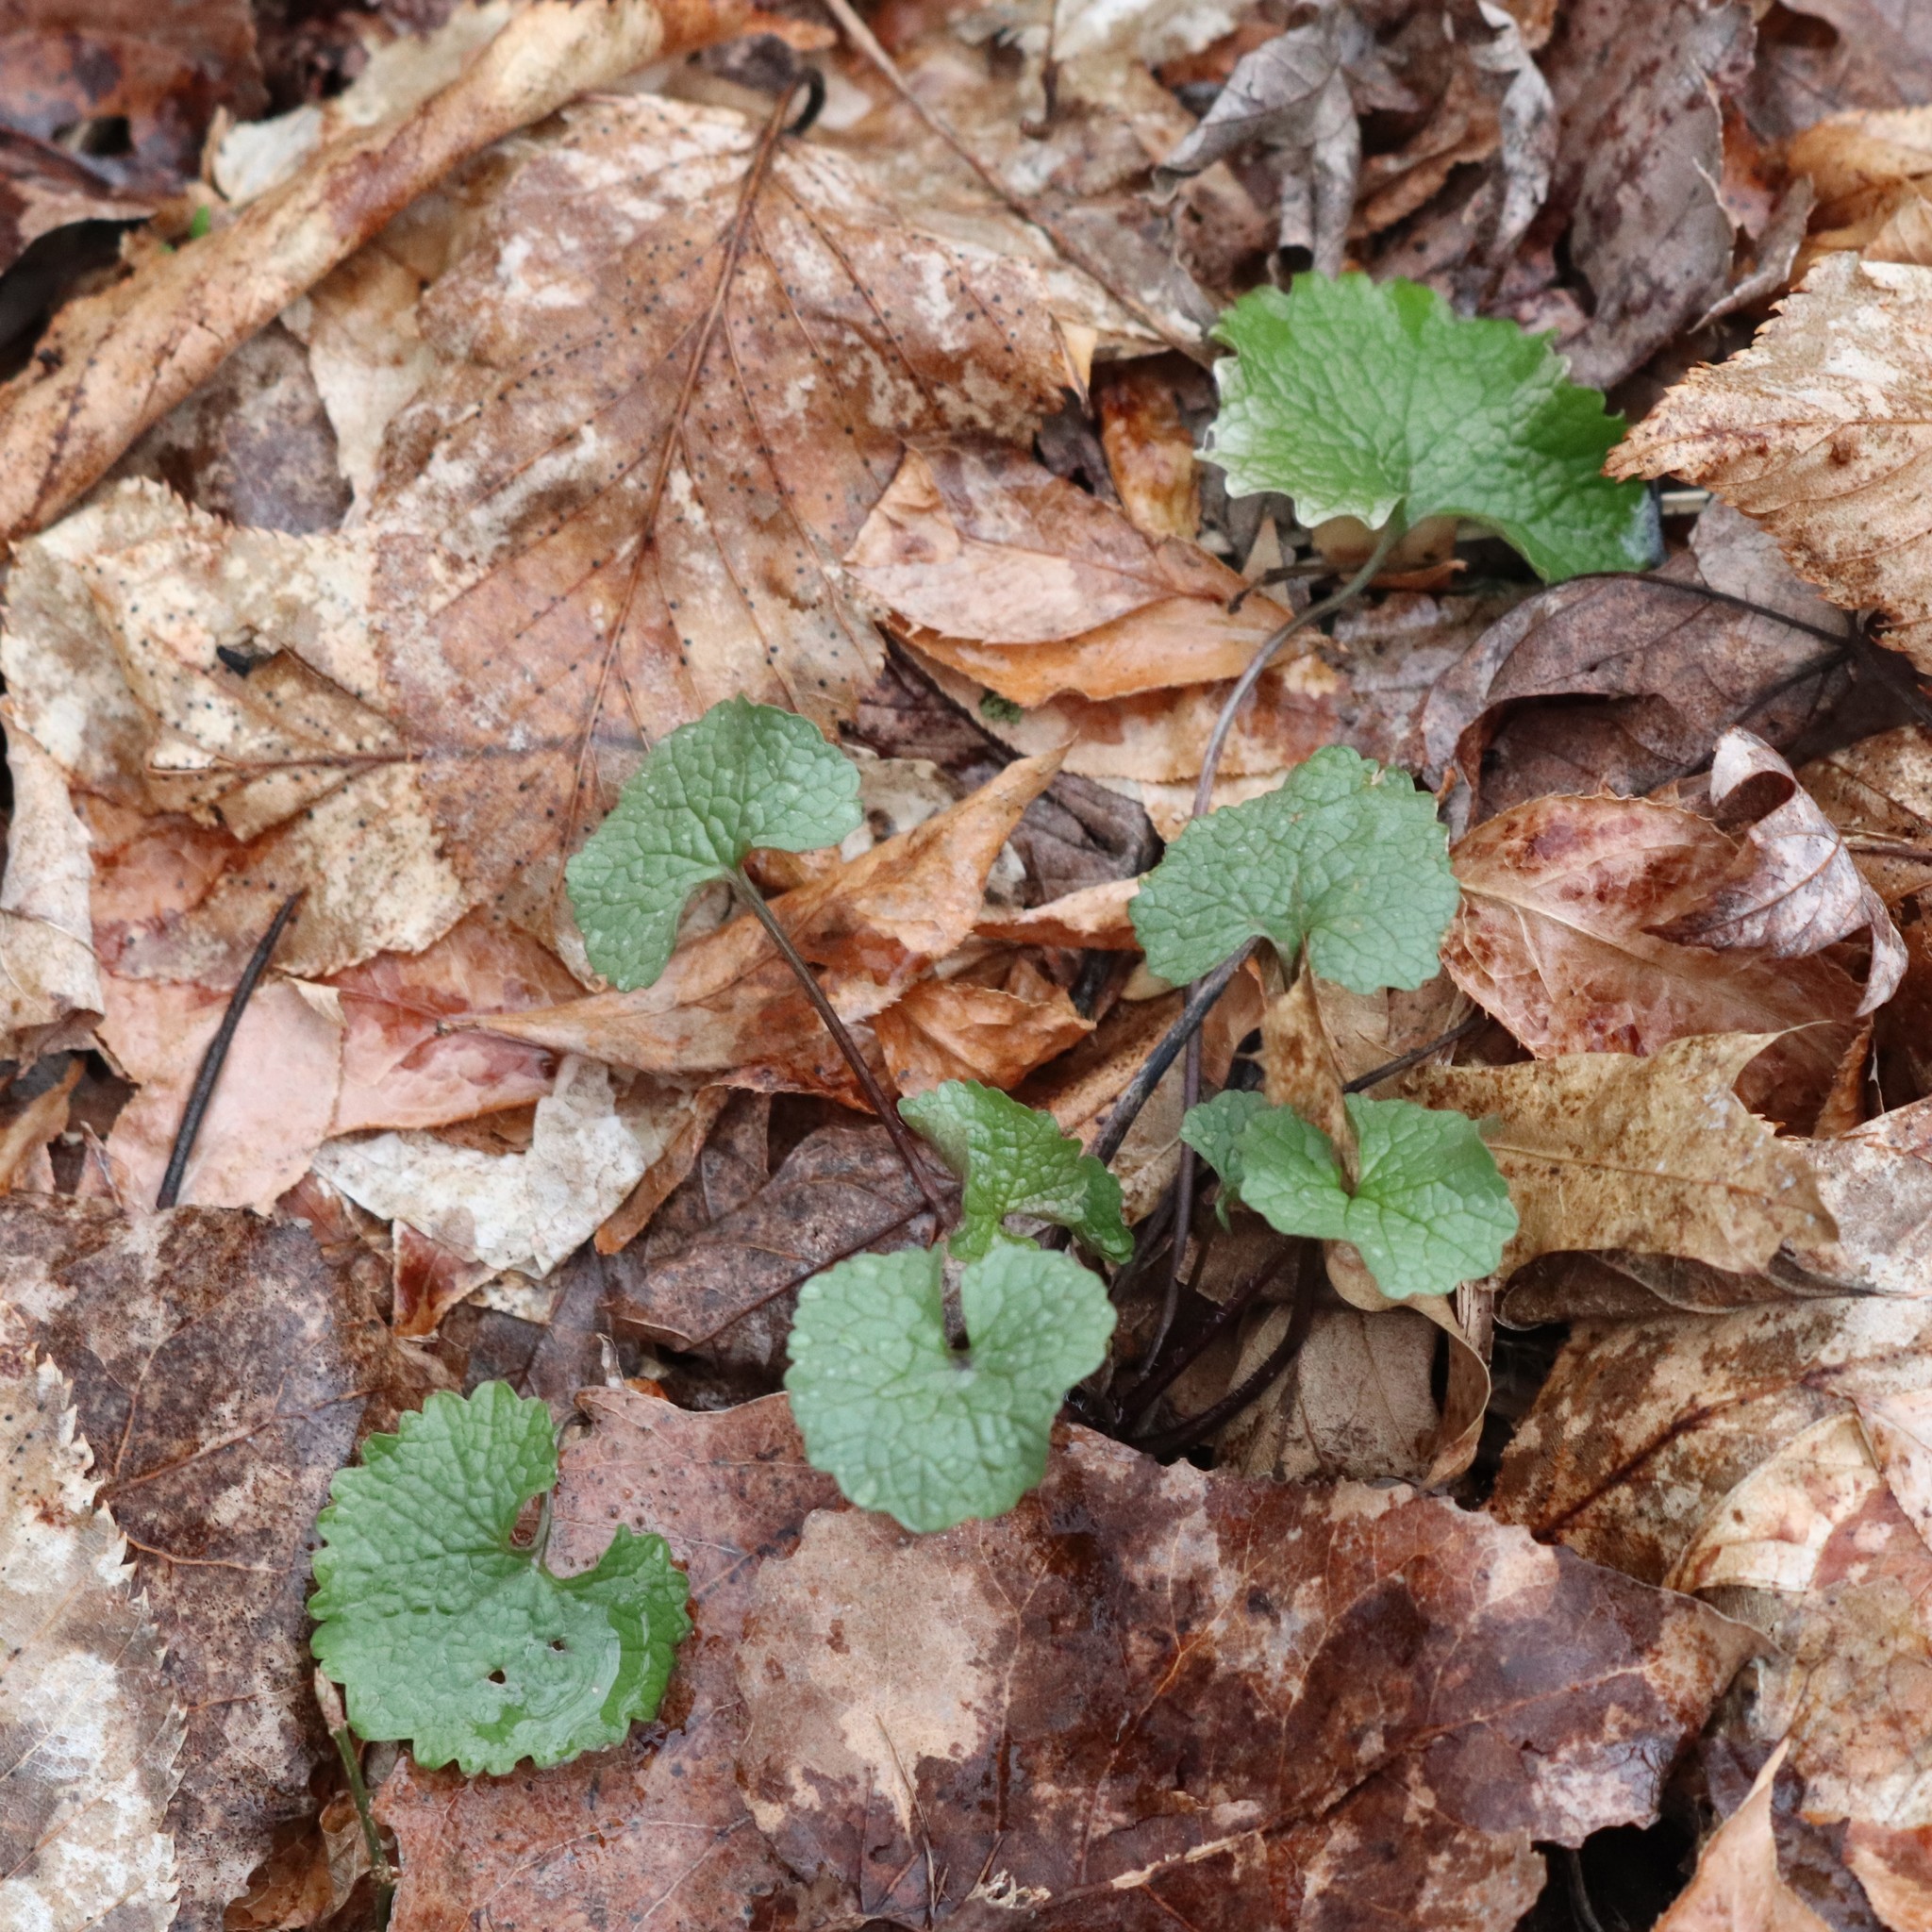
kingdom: Plantae
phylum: Tracheophyta
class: Magnoliopsida
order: Brassicales
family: Brassicaceae
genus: Alliaria
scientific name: Alliaria petiolata
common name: Garlic mustard
